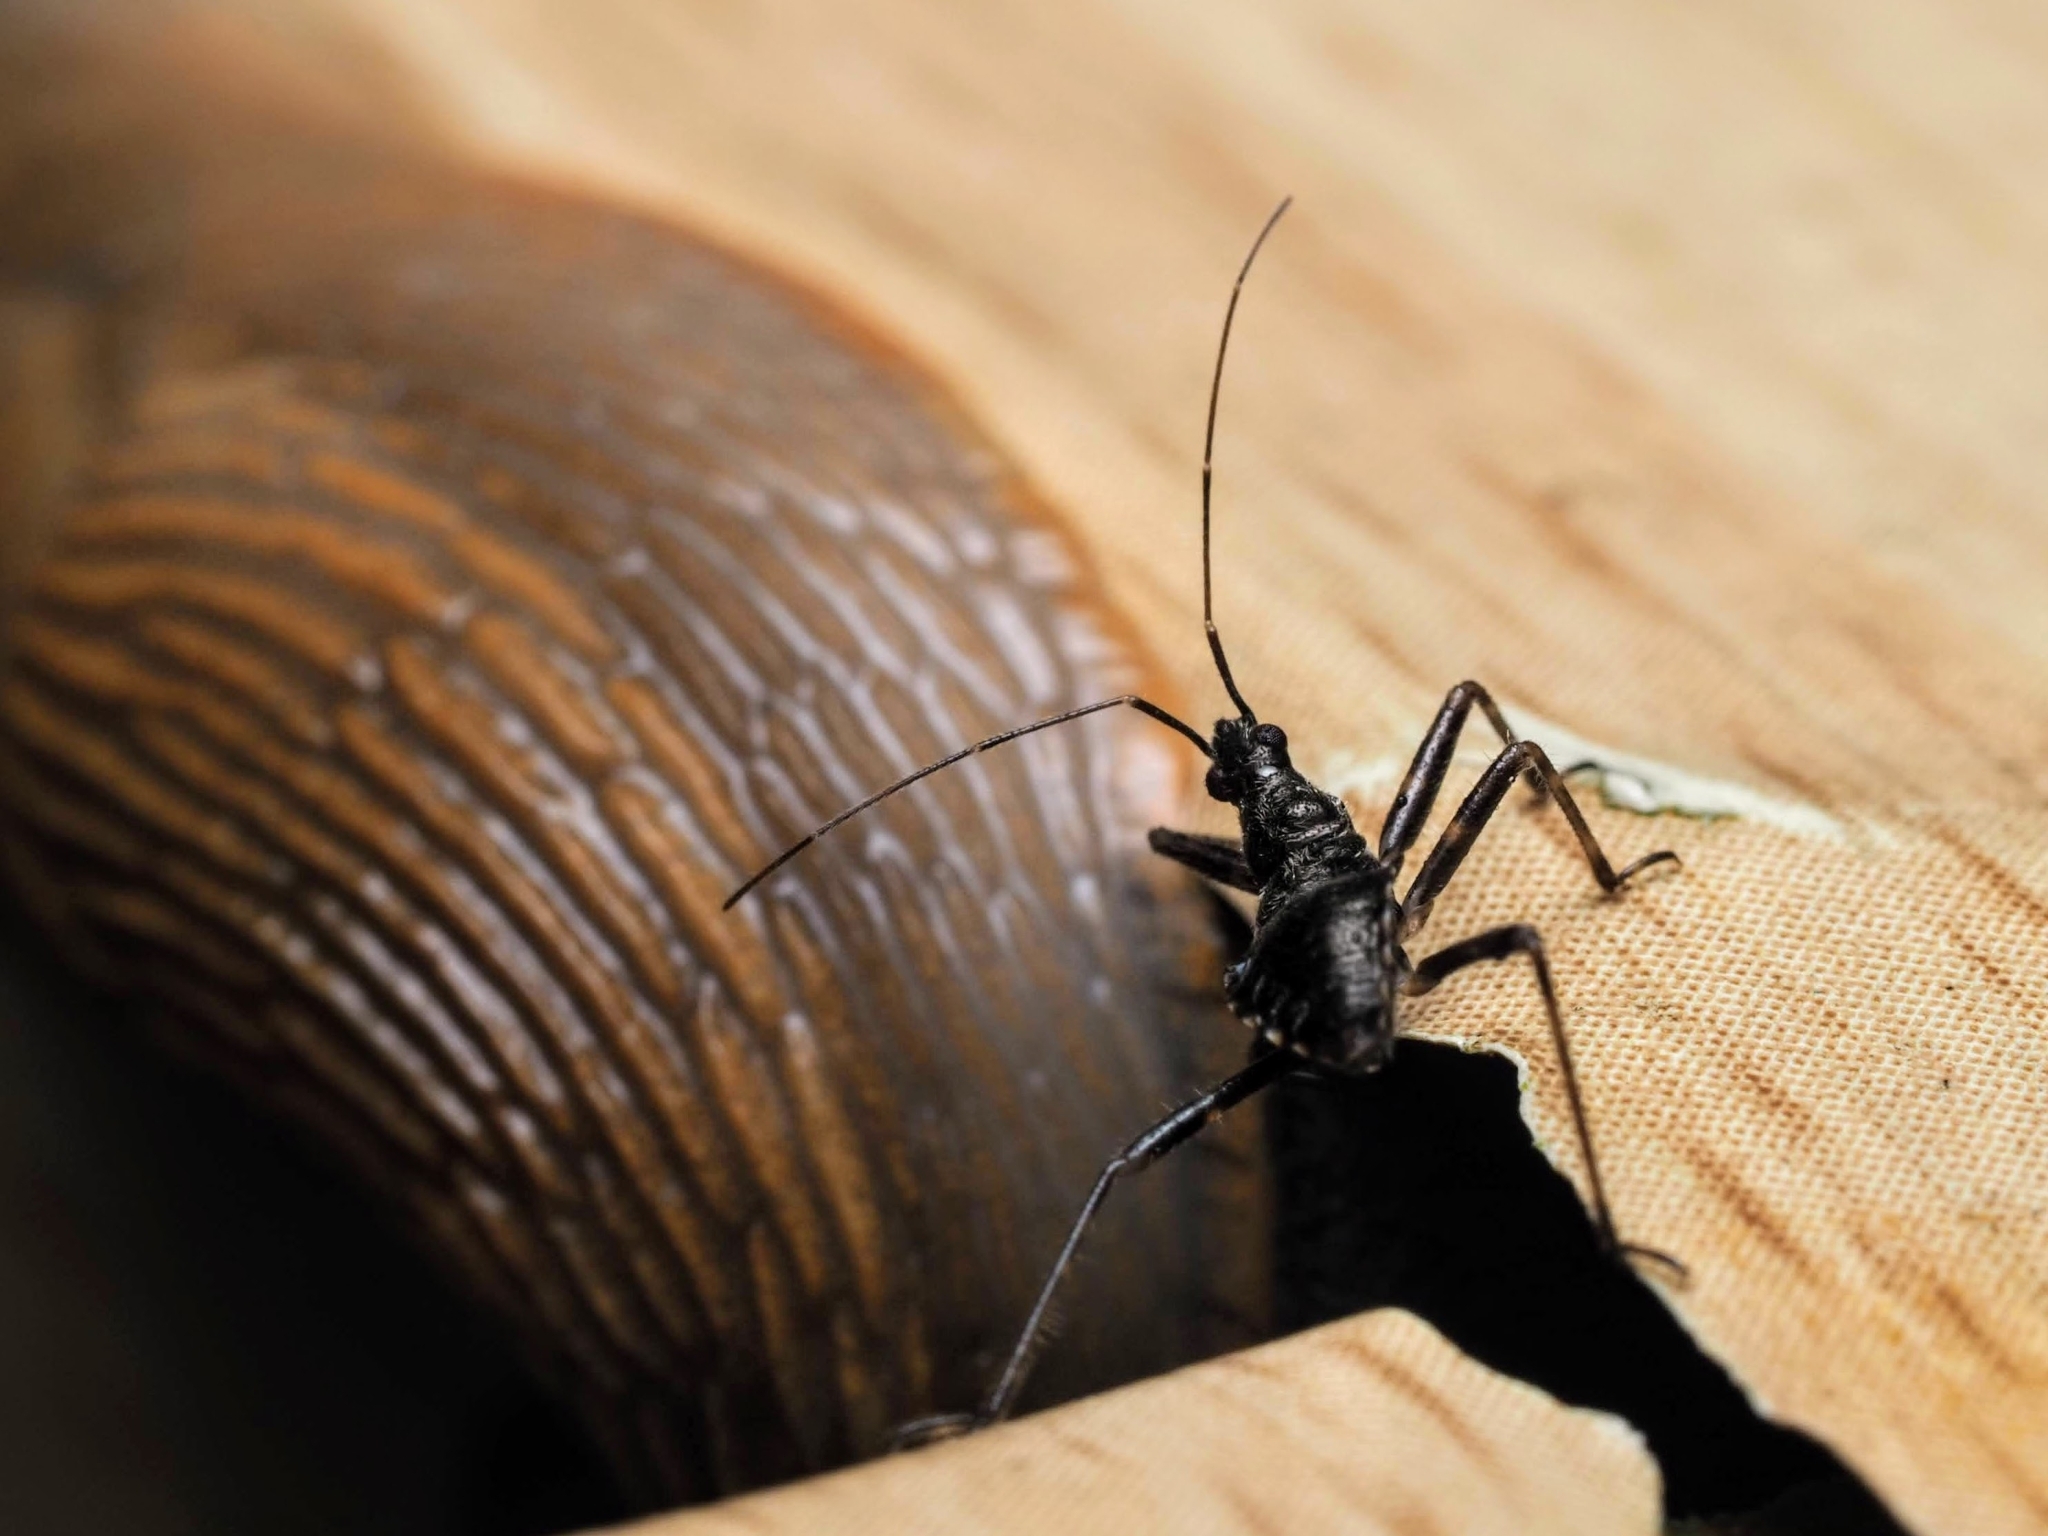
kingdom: Animalia
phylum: Arthropoda
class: Insecta
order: Hemiptera
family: Nabidae
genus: Himacerus
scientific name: Himacerus apterus
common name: Tree damsel bug
